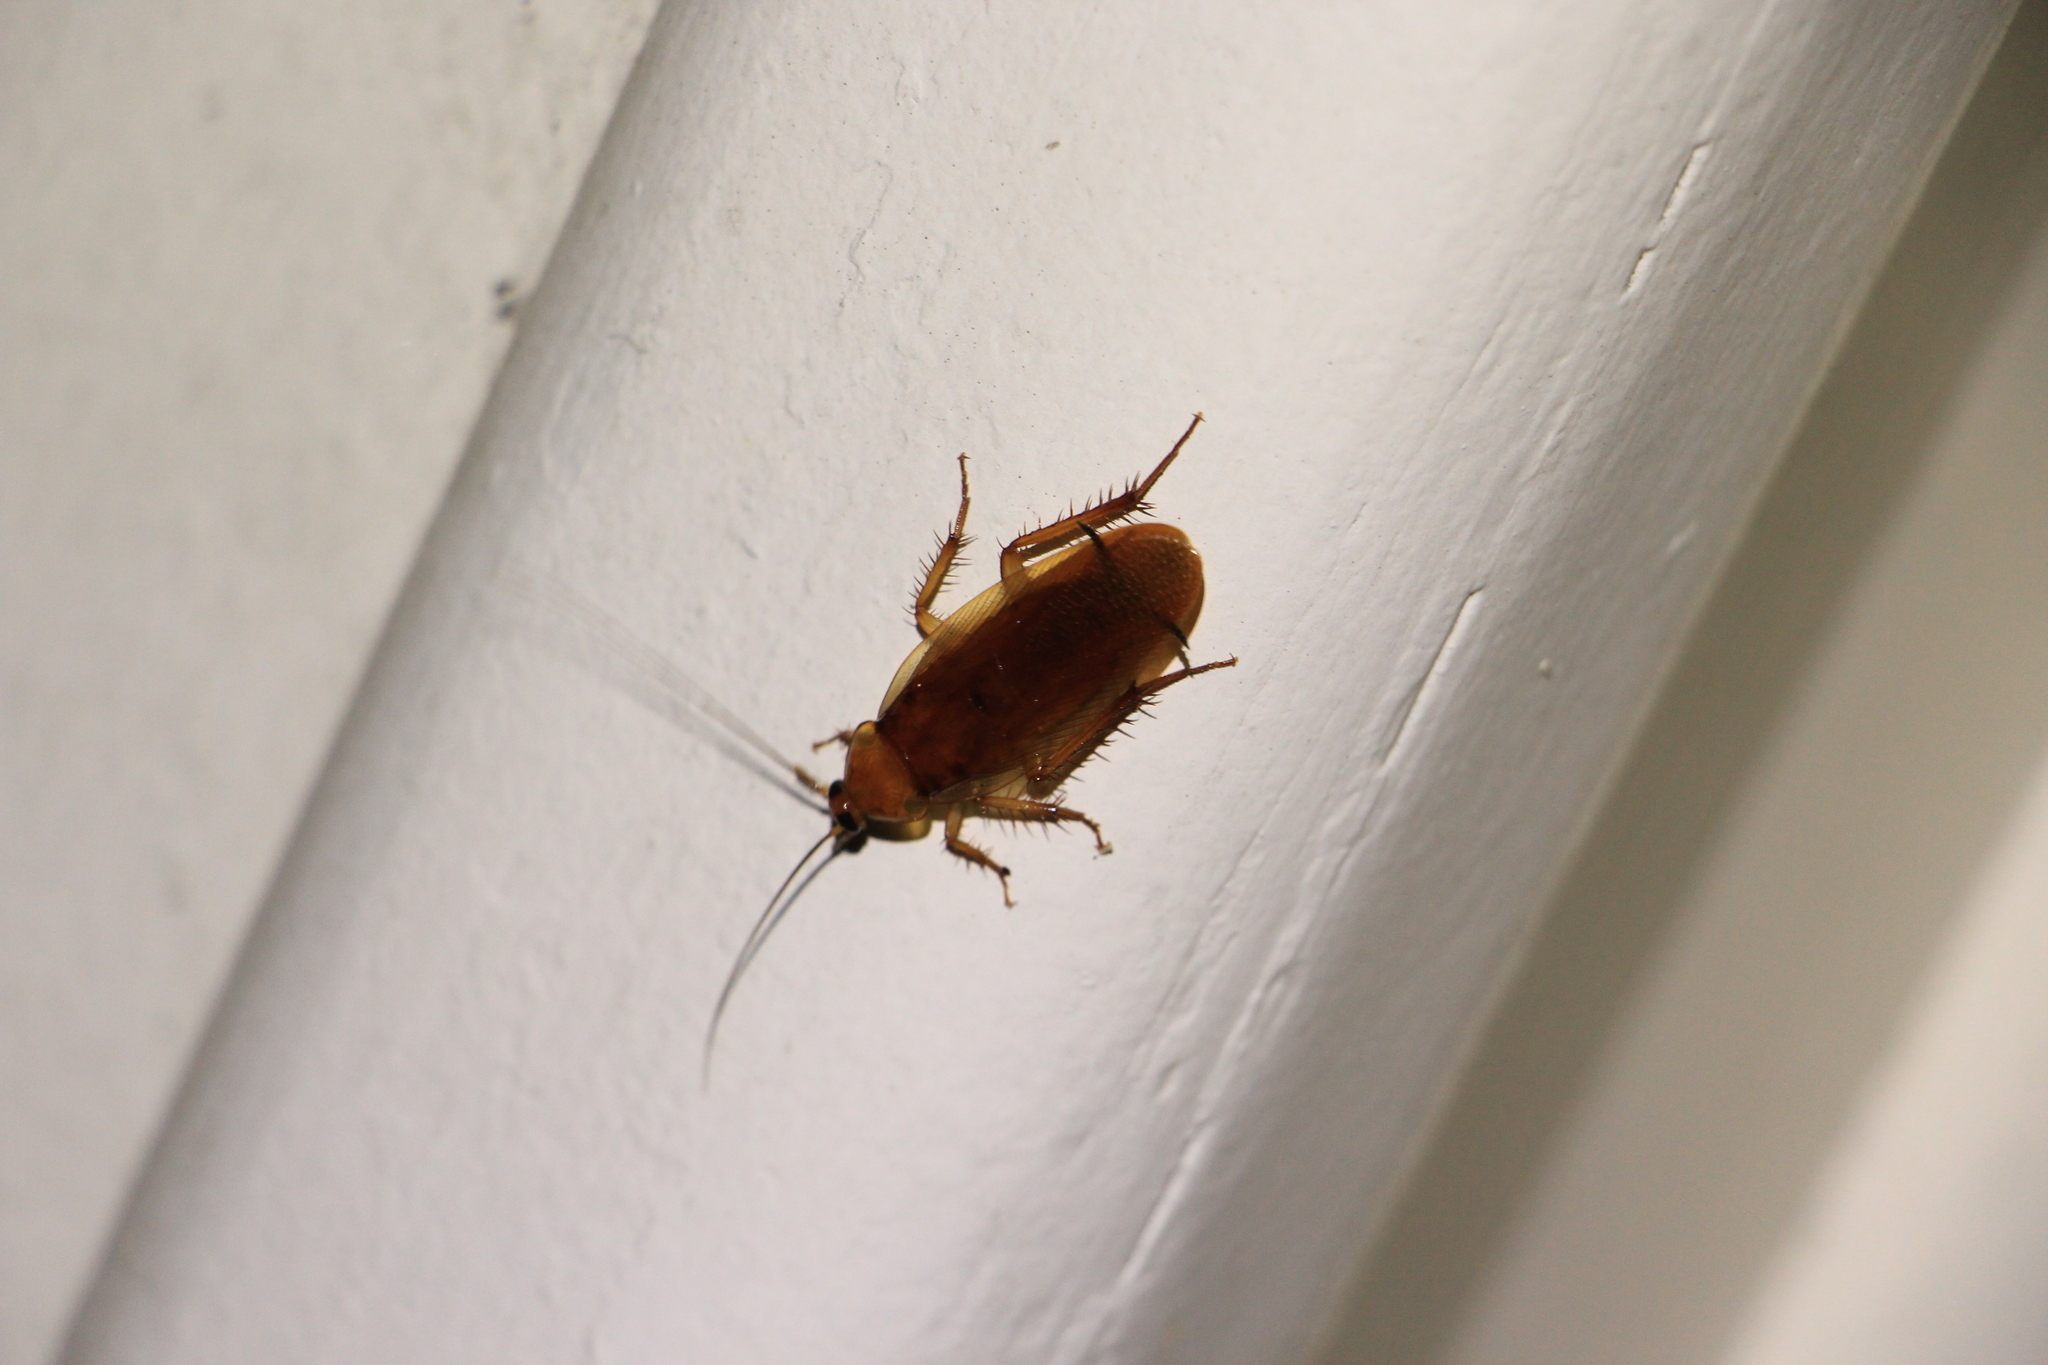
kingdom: Animalia
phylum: Arthropoda
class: Insecta
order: Blattodea
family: Ectobiidae
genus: Neotemnopteryx
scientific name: Neotemnopteryx fulva
